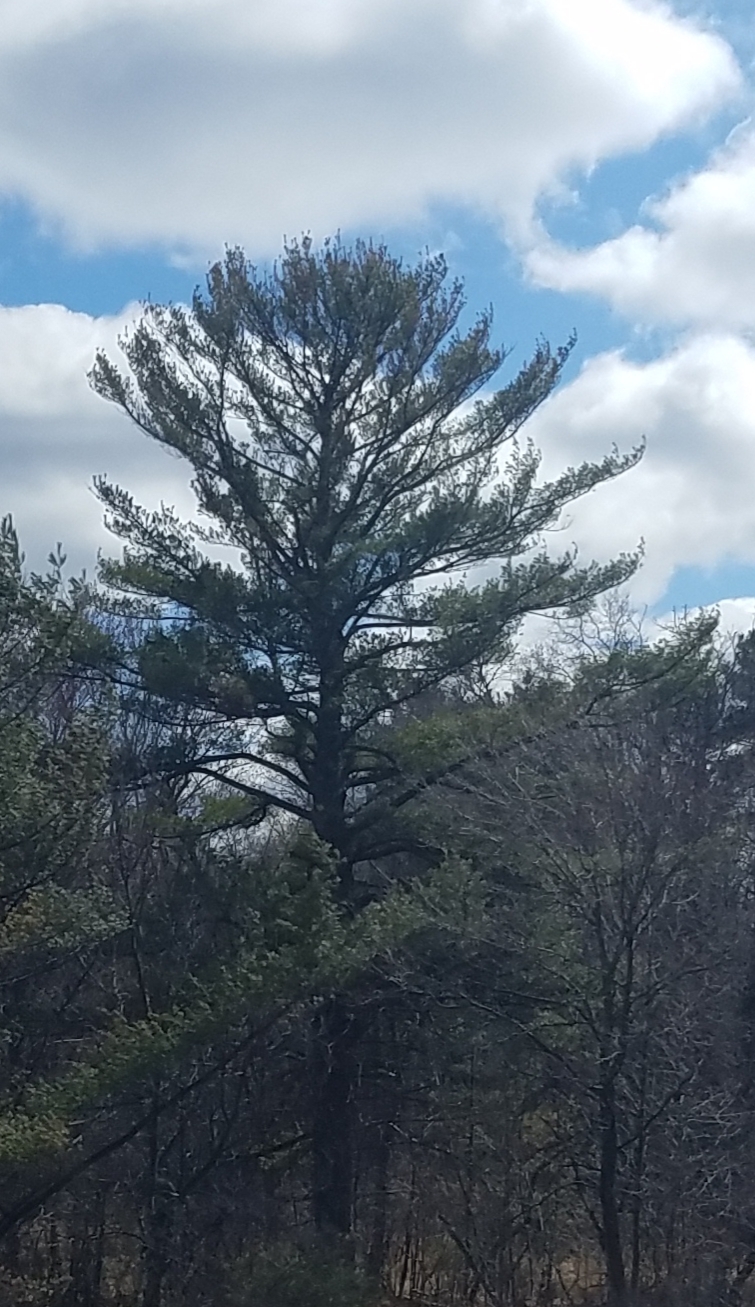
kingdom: Plantae
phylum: Tracheophyta
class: Pinopsida
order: Pinales
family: Pinaceae
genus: Pinus
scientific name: Pinus strobus
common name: Weymouth pine
